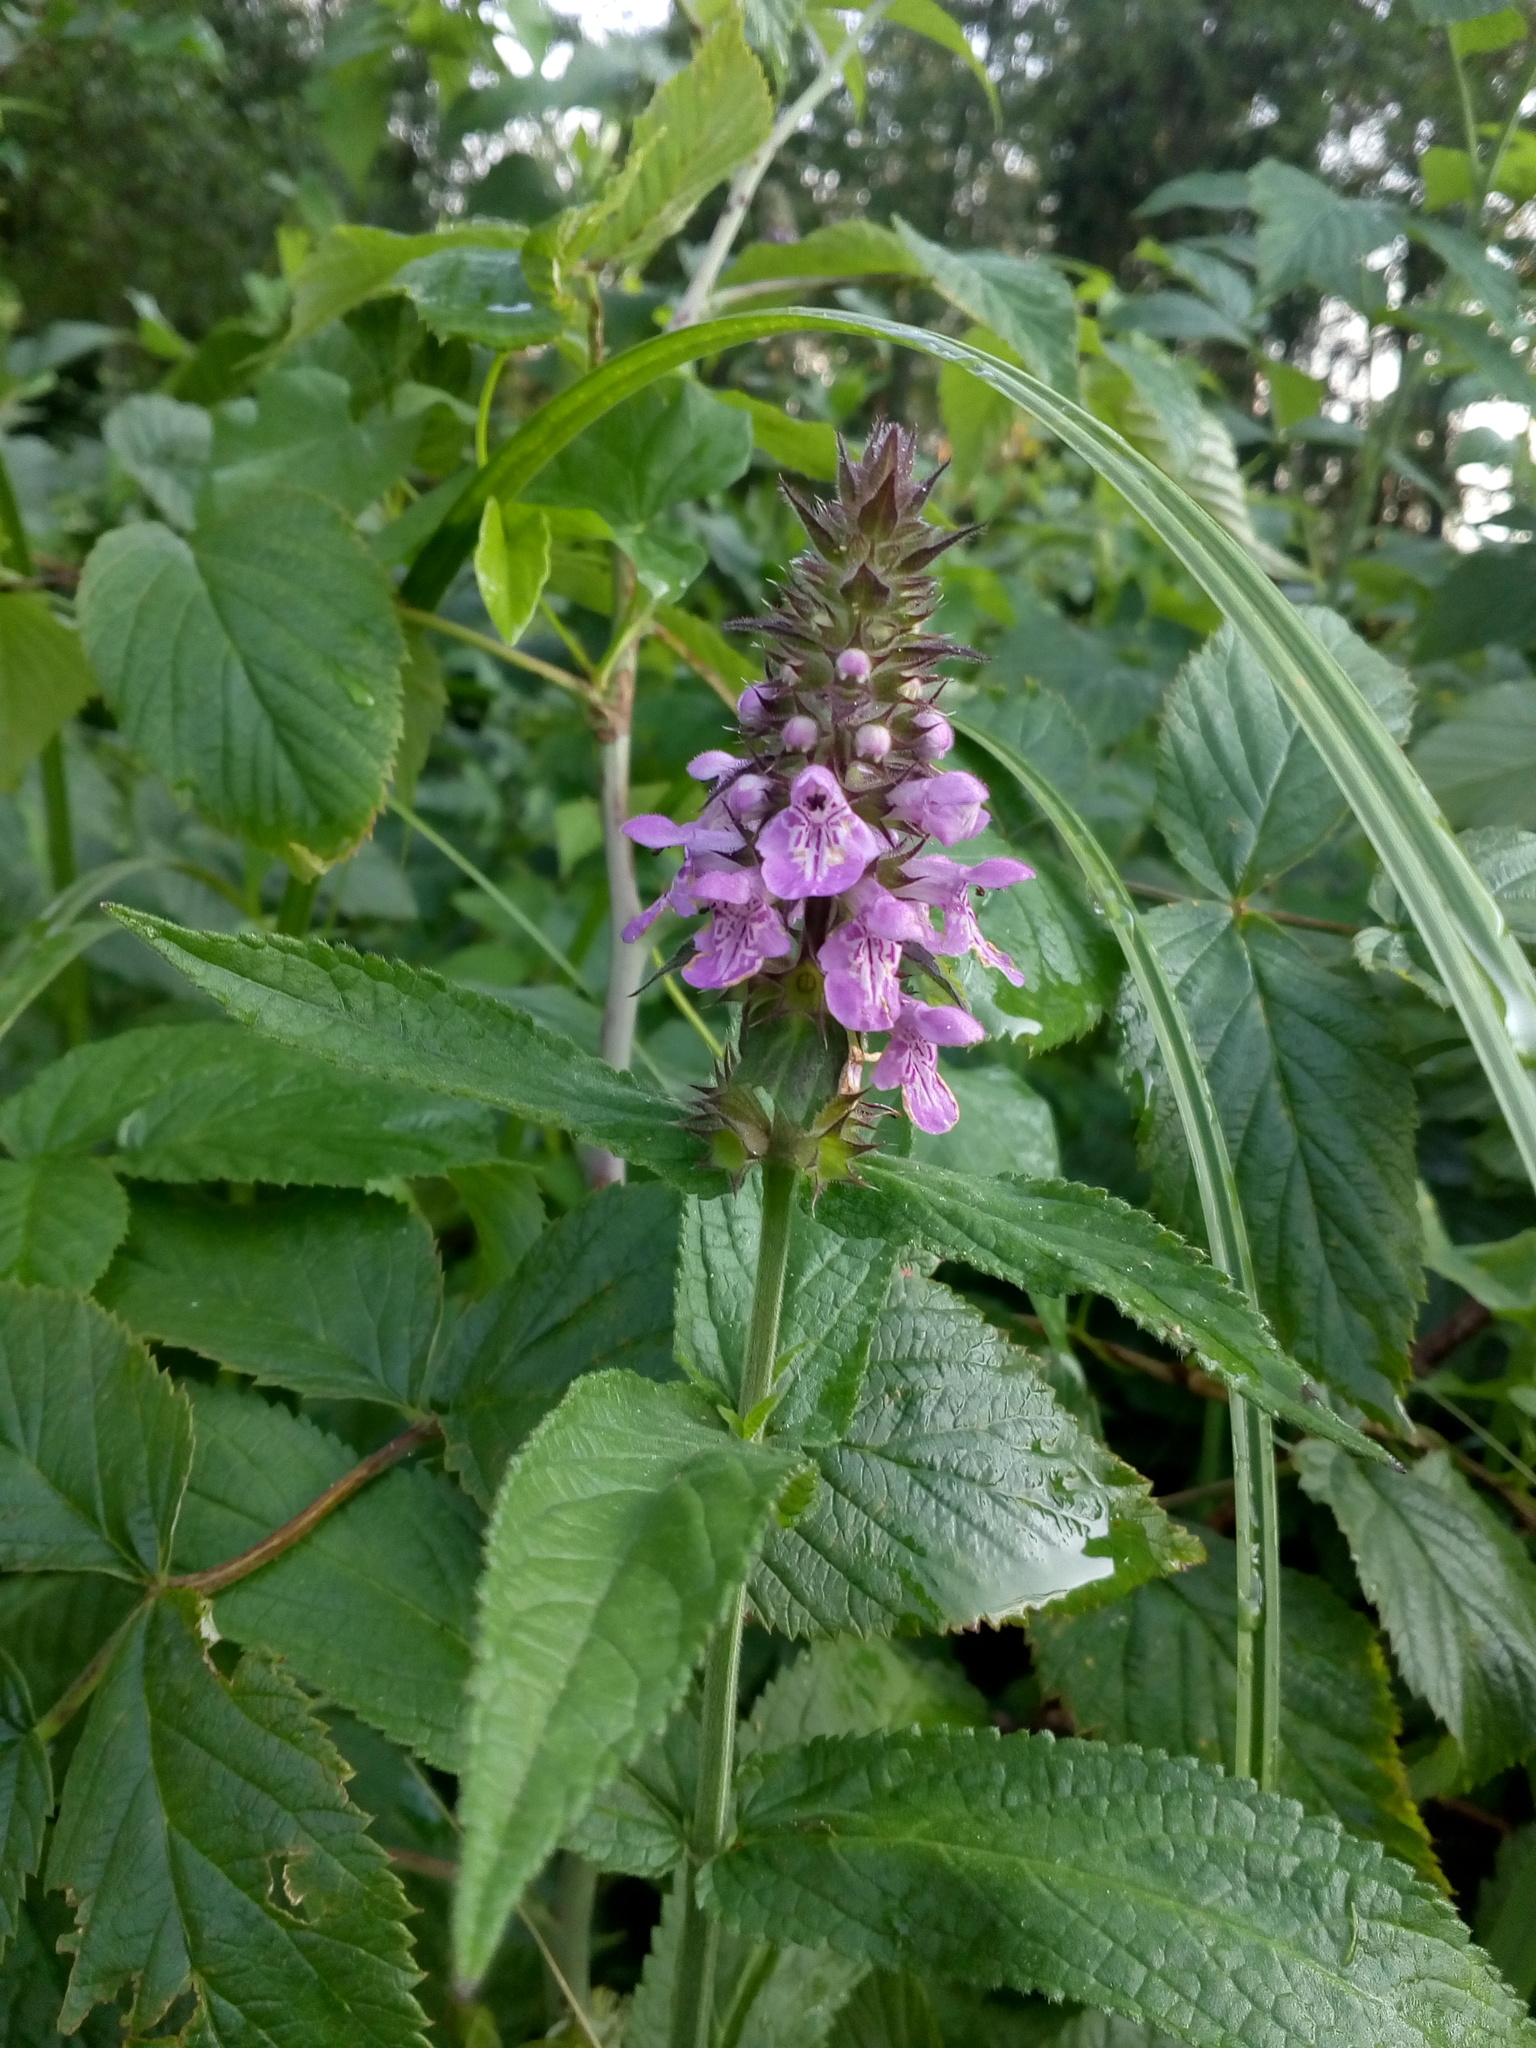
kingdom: Plantae
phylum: Tracheophyta
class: Magnoliopsida
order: Lamiales
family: Lamiaceae
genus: Stachys
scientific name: Stachys palustris
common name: Marsh woundwort
